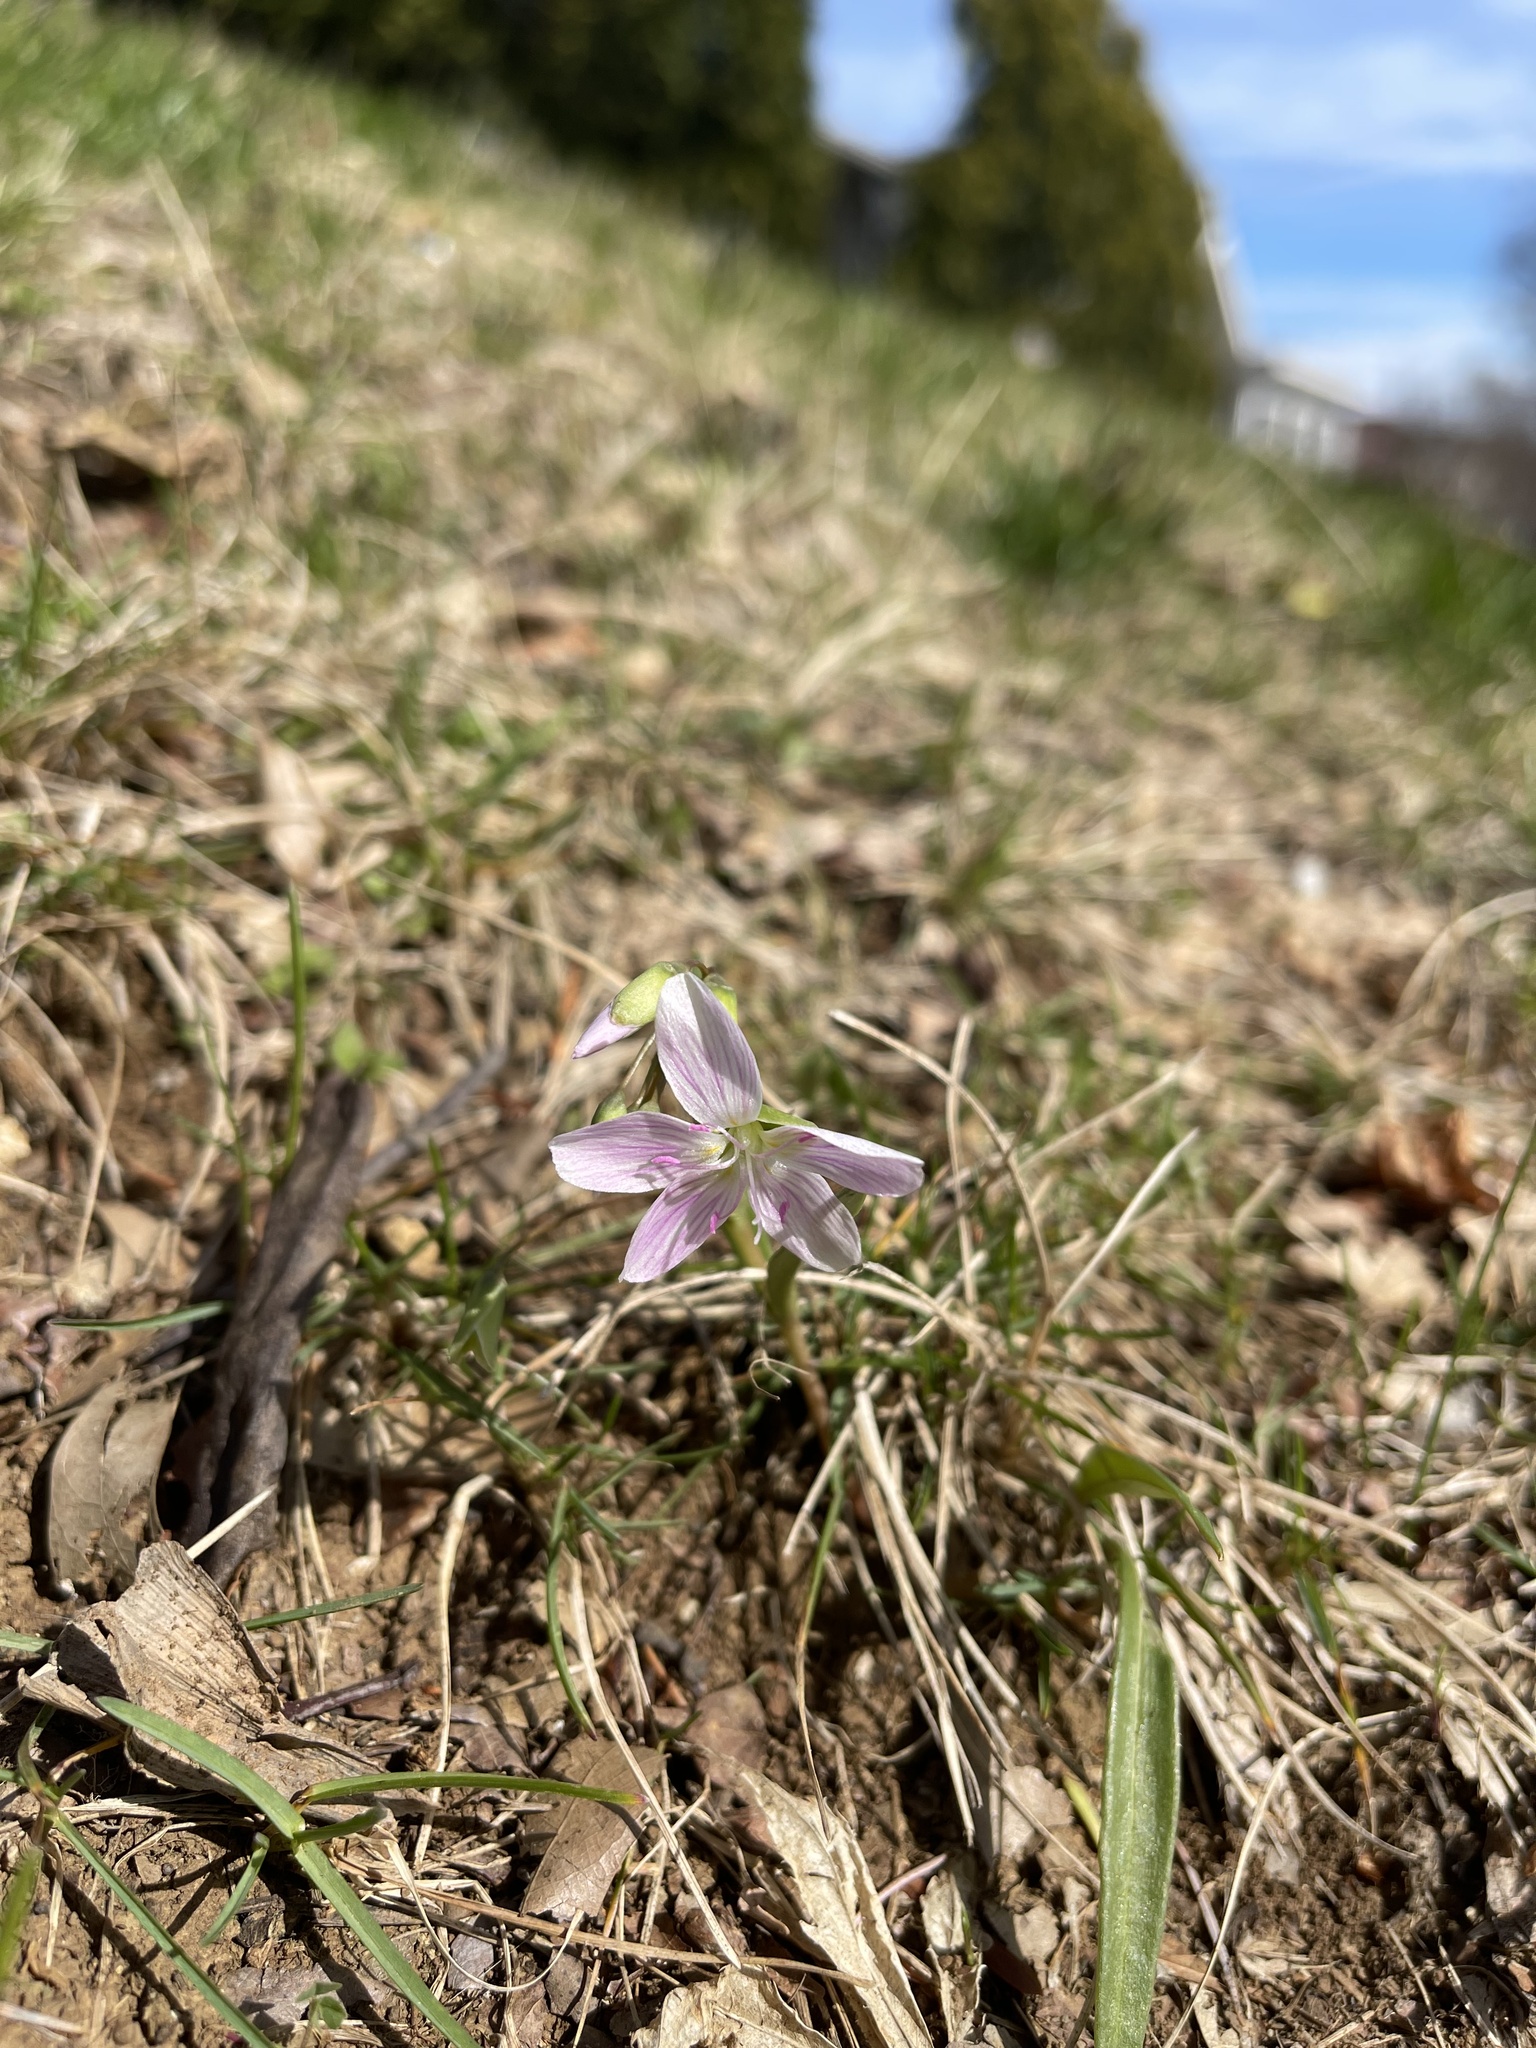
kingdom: Plantae
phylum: Tracheophyta
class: Magnoliopsida
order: Caryophyllales
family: Montiaceae
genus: Claytonia
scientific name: Claytonia virginica
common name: Virginia springbeauty
